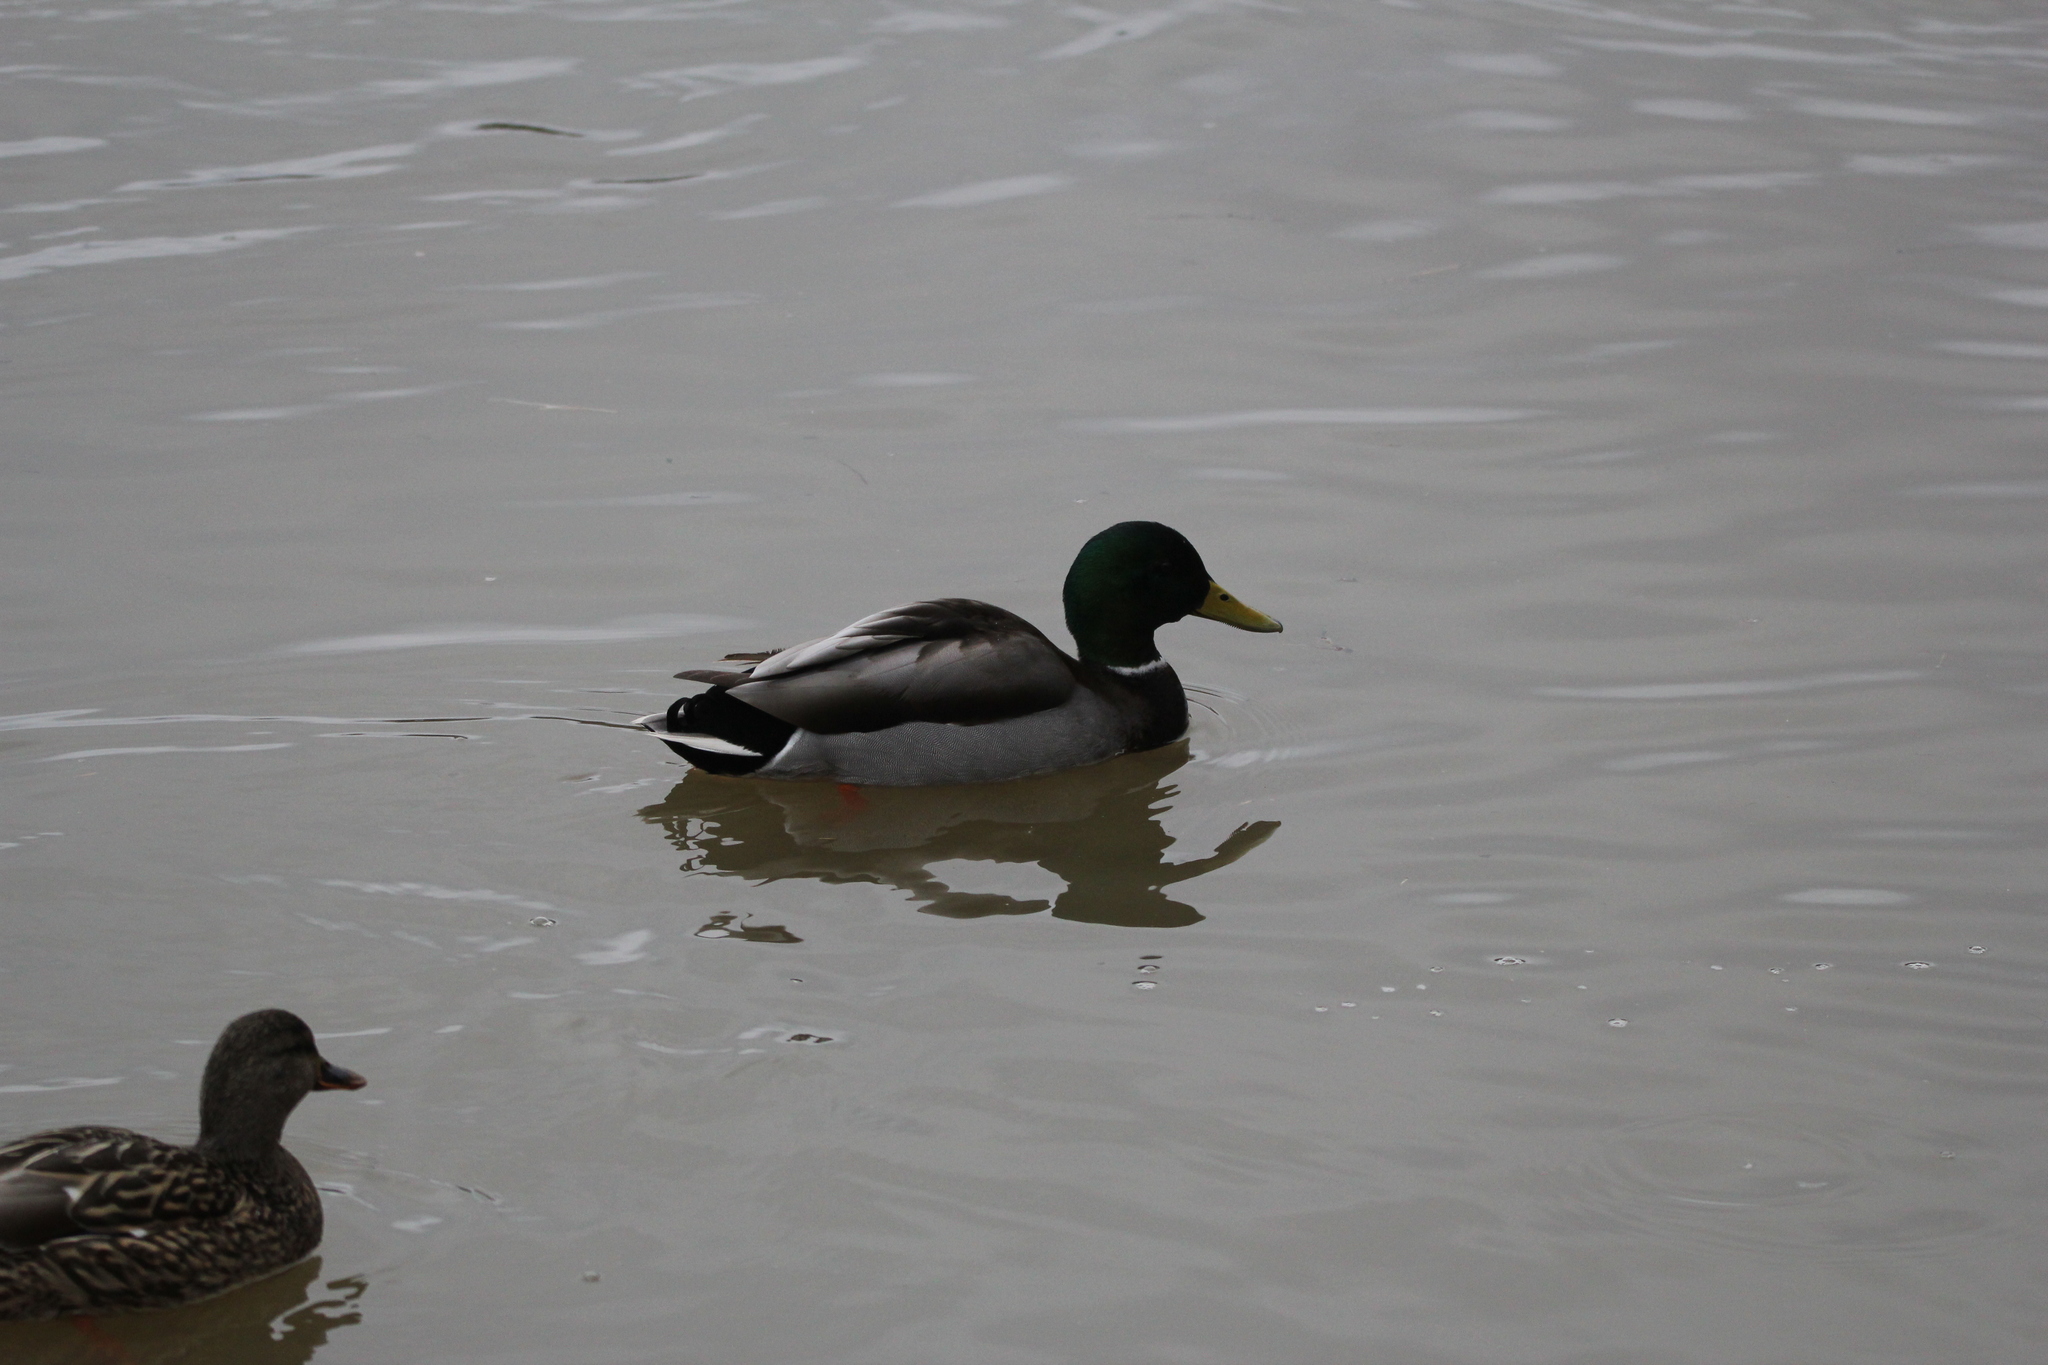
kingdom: Animalia
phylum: Chordata
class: Aves
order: Anseriformes
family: Anatidae
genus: Anas
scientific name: Anas platyrhynchos
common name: Mallard
